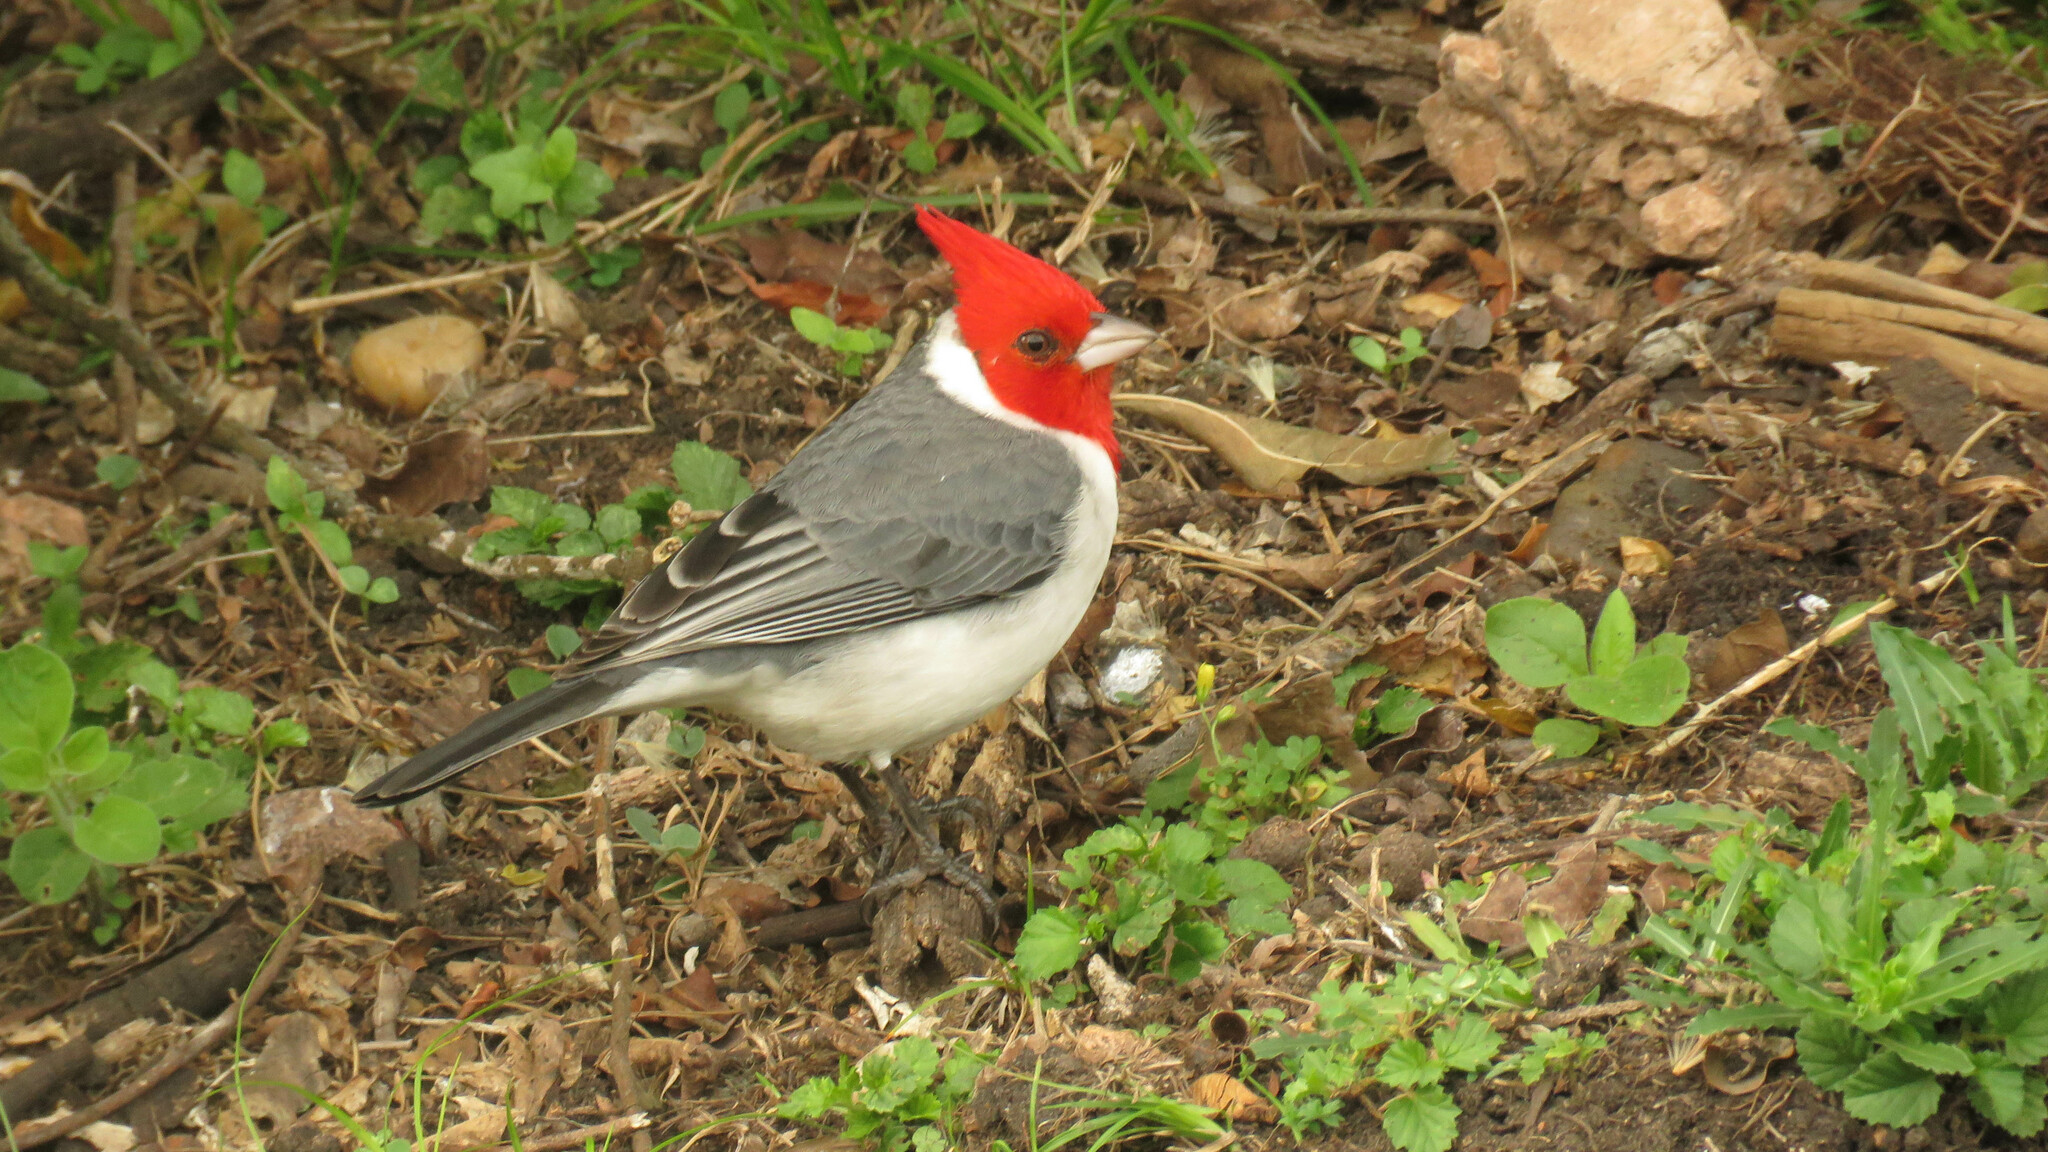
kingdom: Animalia
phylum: Chordata
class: Aves
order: Passeriformes
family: Thraupidae
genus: Paroaria
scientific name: Paroaria coronata
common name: Red-crested cardinal
